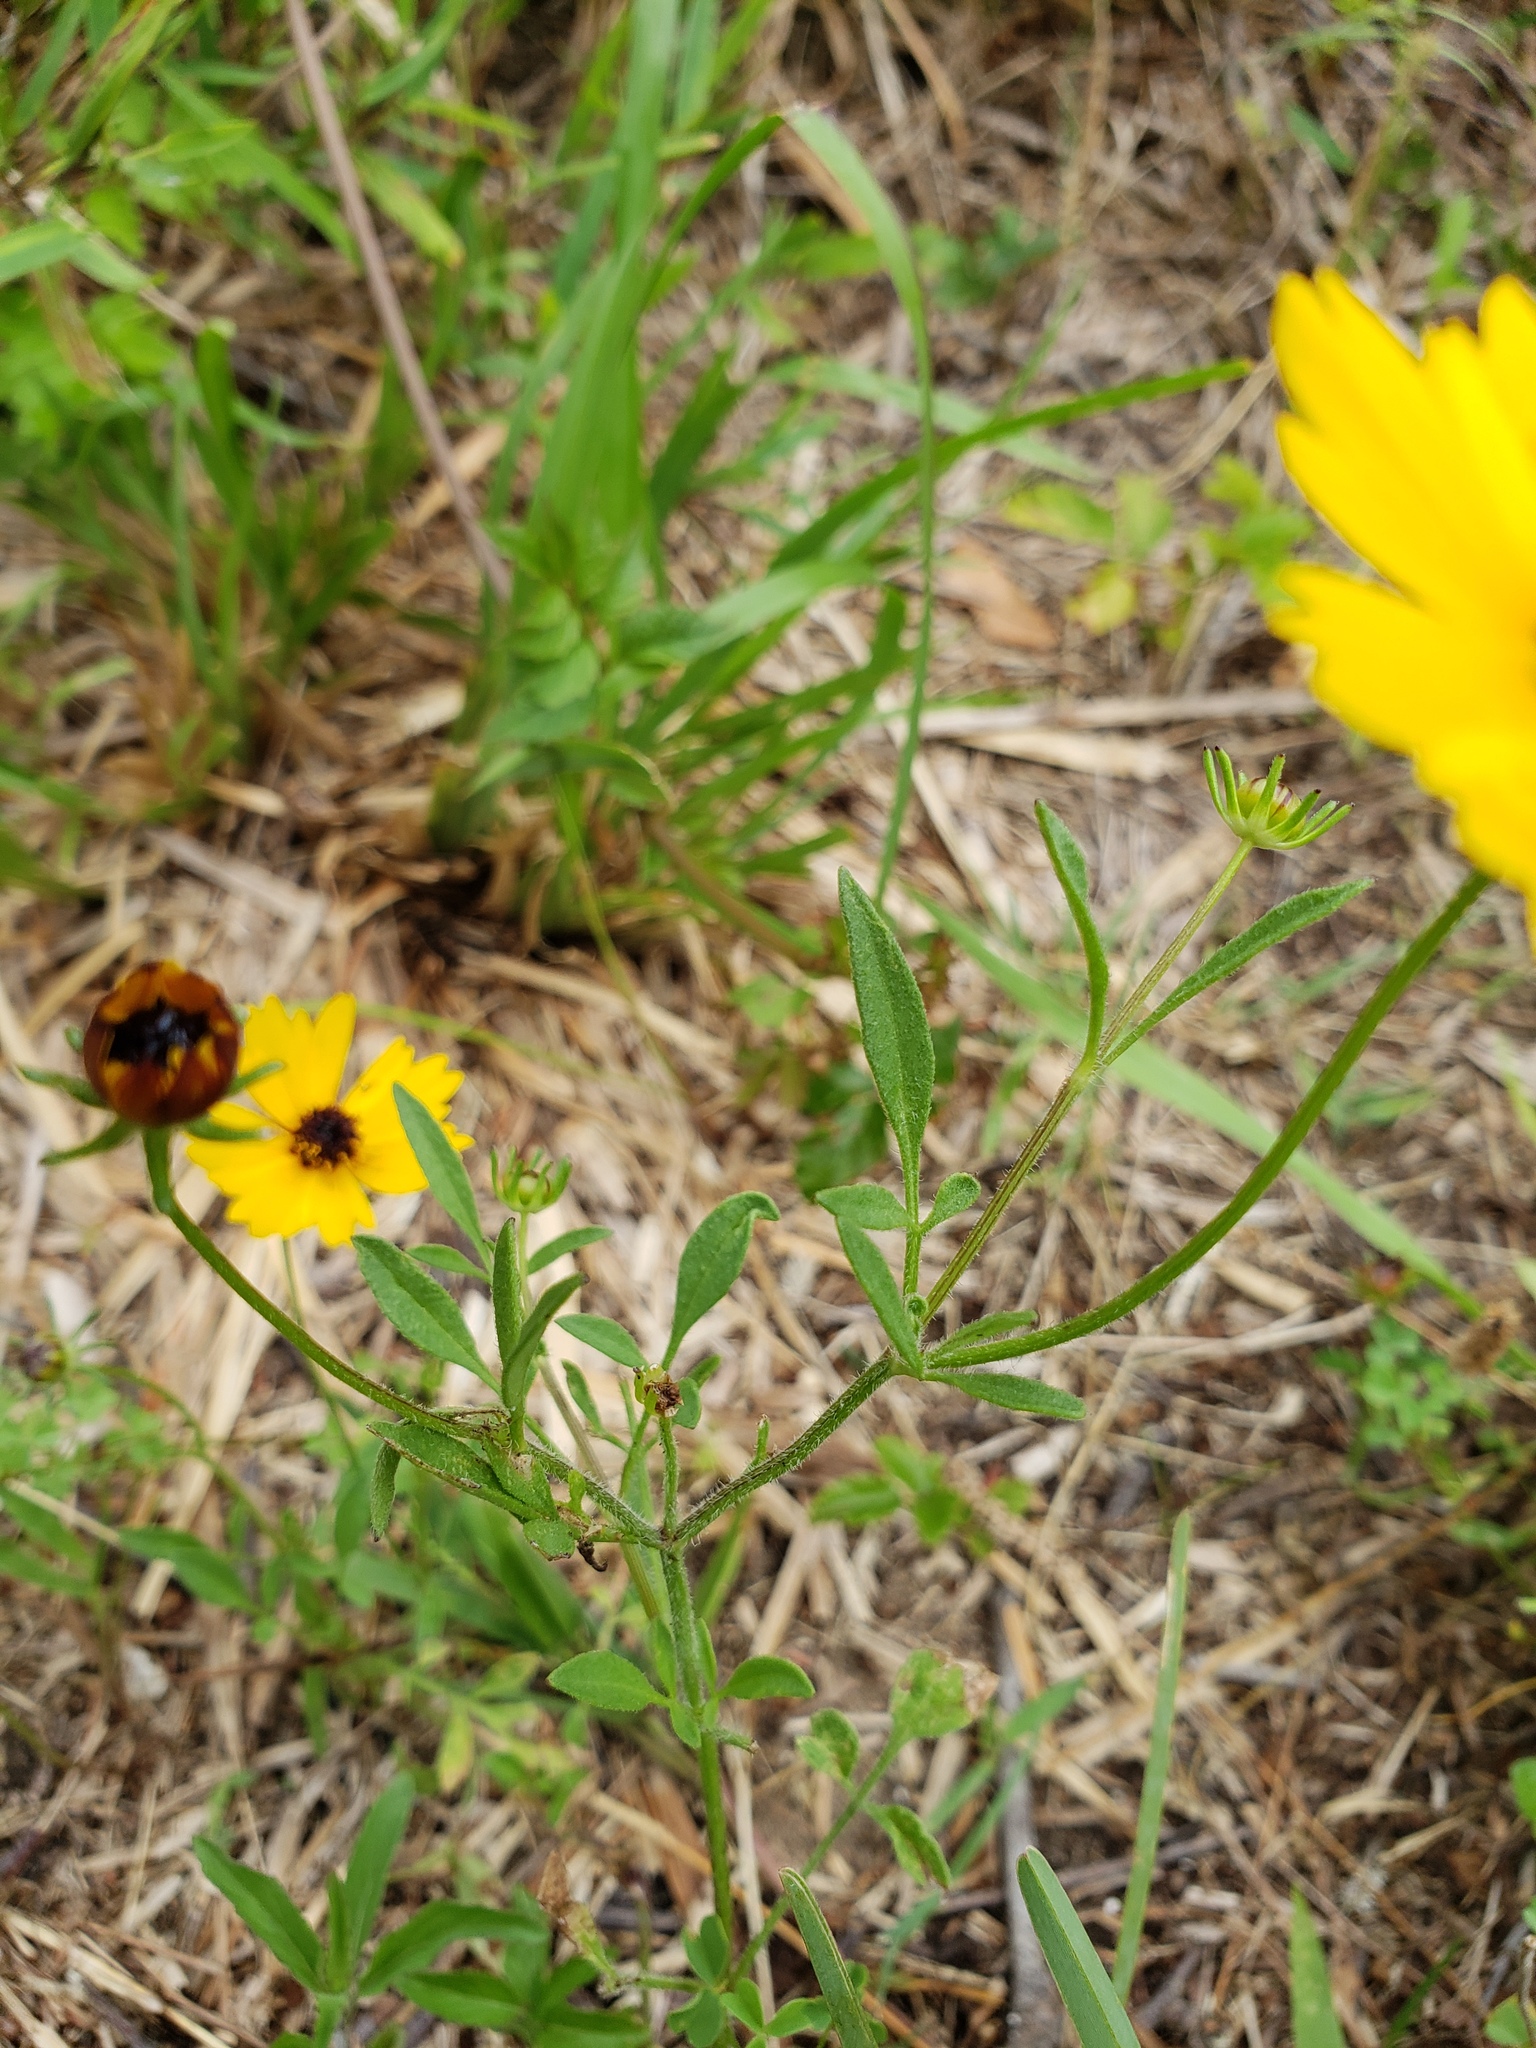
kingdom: Plantae
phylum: Tracheophyta
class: Magnoliopsida
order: Asterales
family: Asteraceae
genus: Coreopsis
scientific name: Coreopsis basalis
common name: Golden-mane coreopsis
